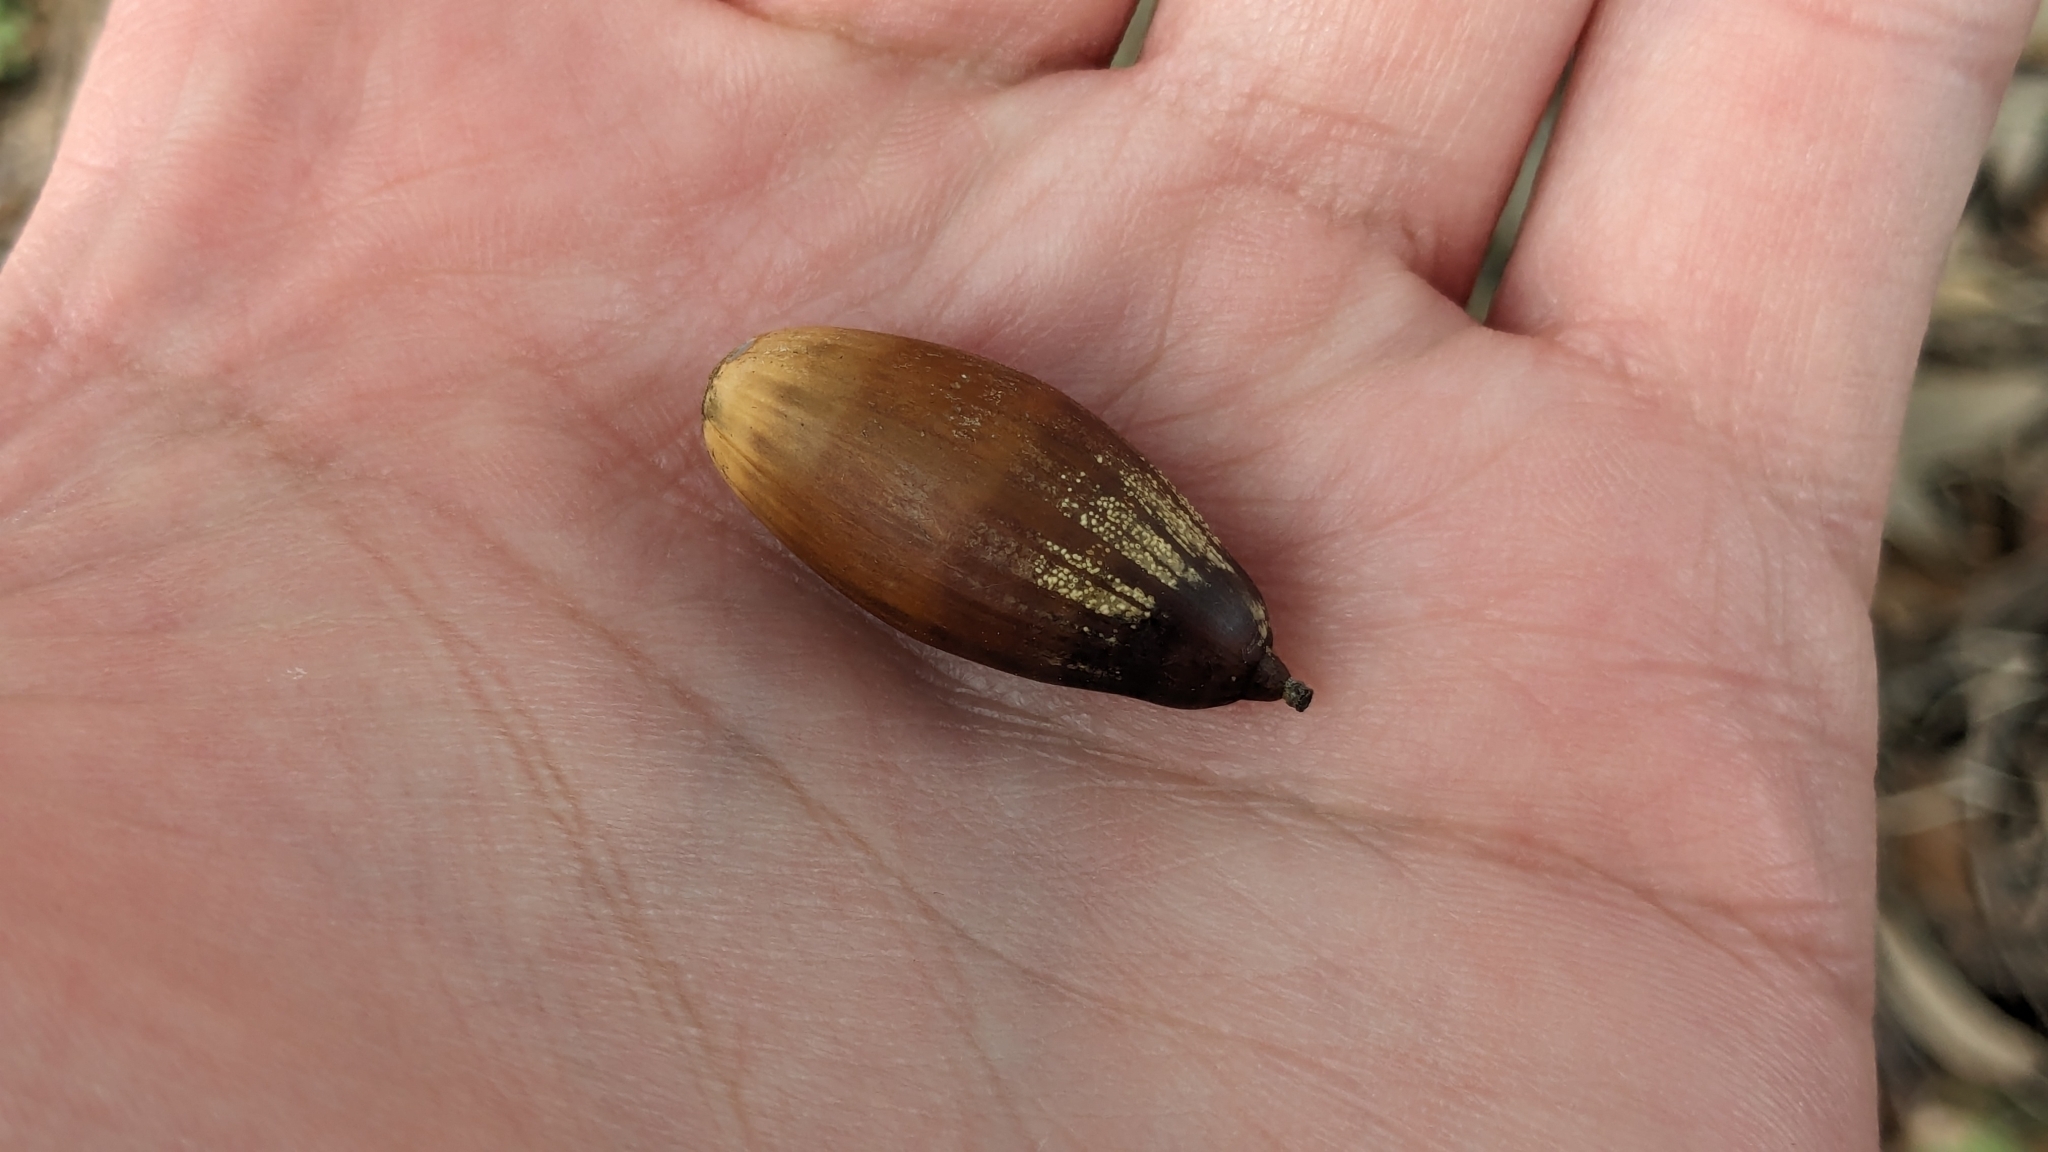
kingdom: Plantae
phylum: Tracheophyta
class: Magnoliopsida
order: Fagales
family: Fagaceae
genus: Quercus
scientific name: Quercus fusiformis
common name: Texas live oak
